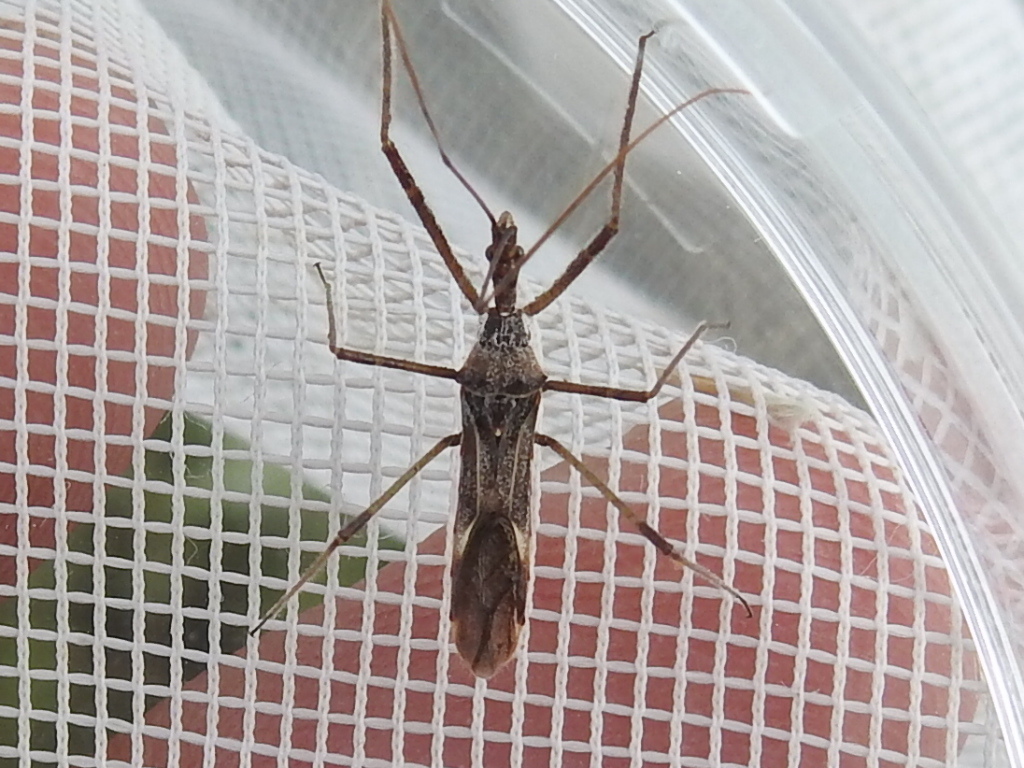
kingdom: Animalia
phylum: Arthropoda
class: Insecta
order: Hemiptera
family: Reduviidae
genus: Zelus
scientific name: Zelus tetracanthus
